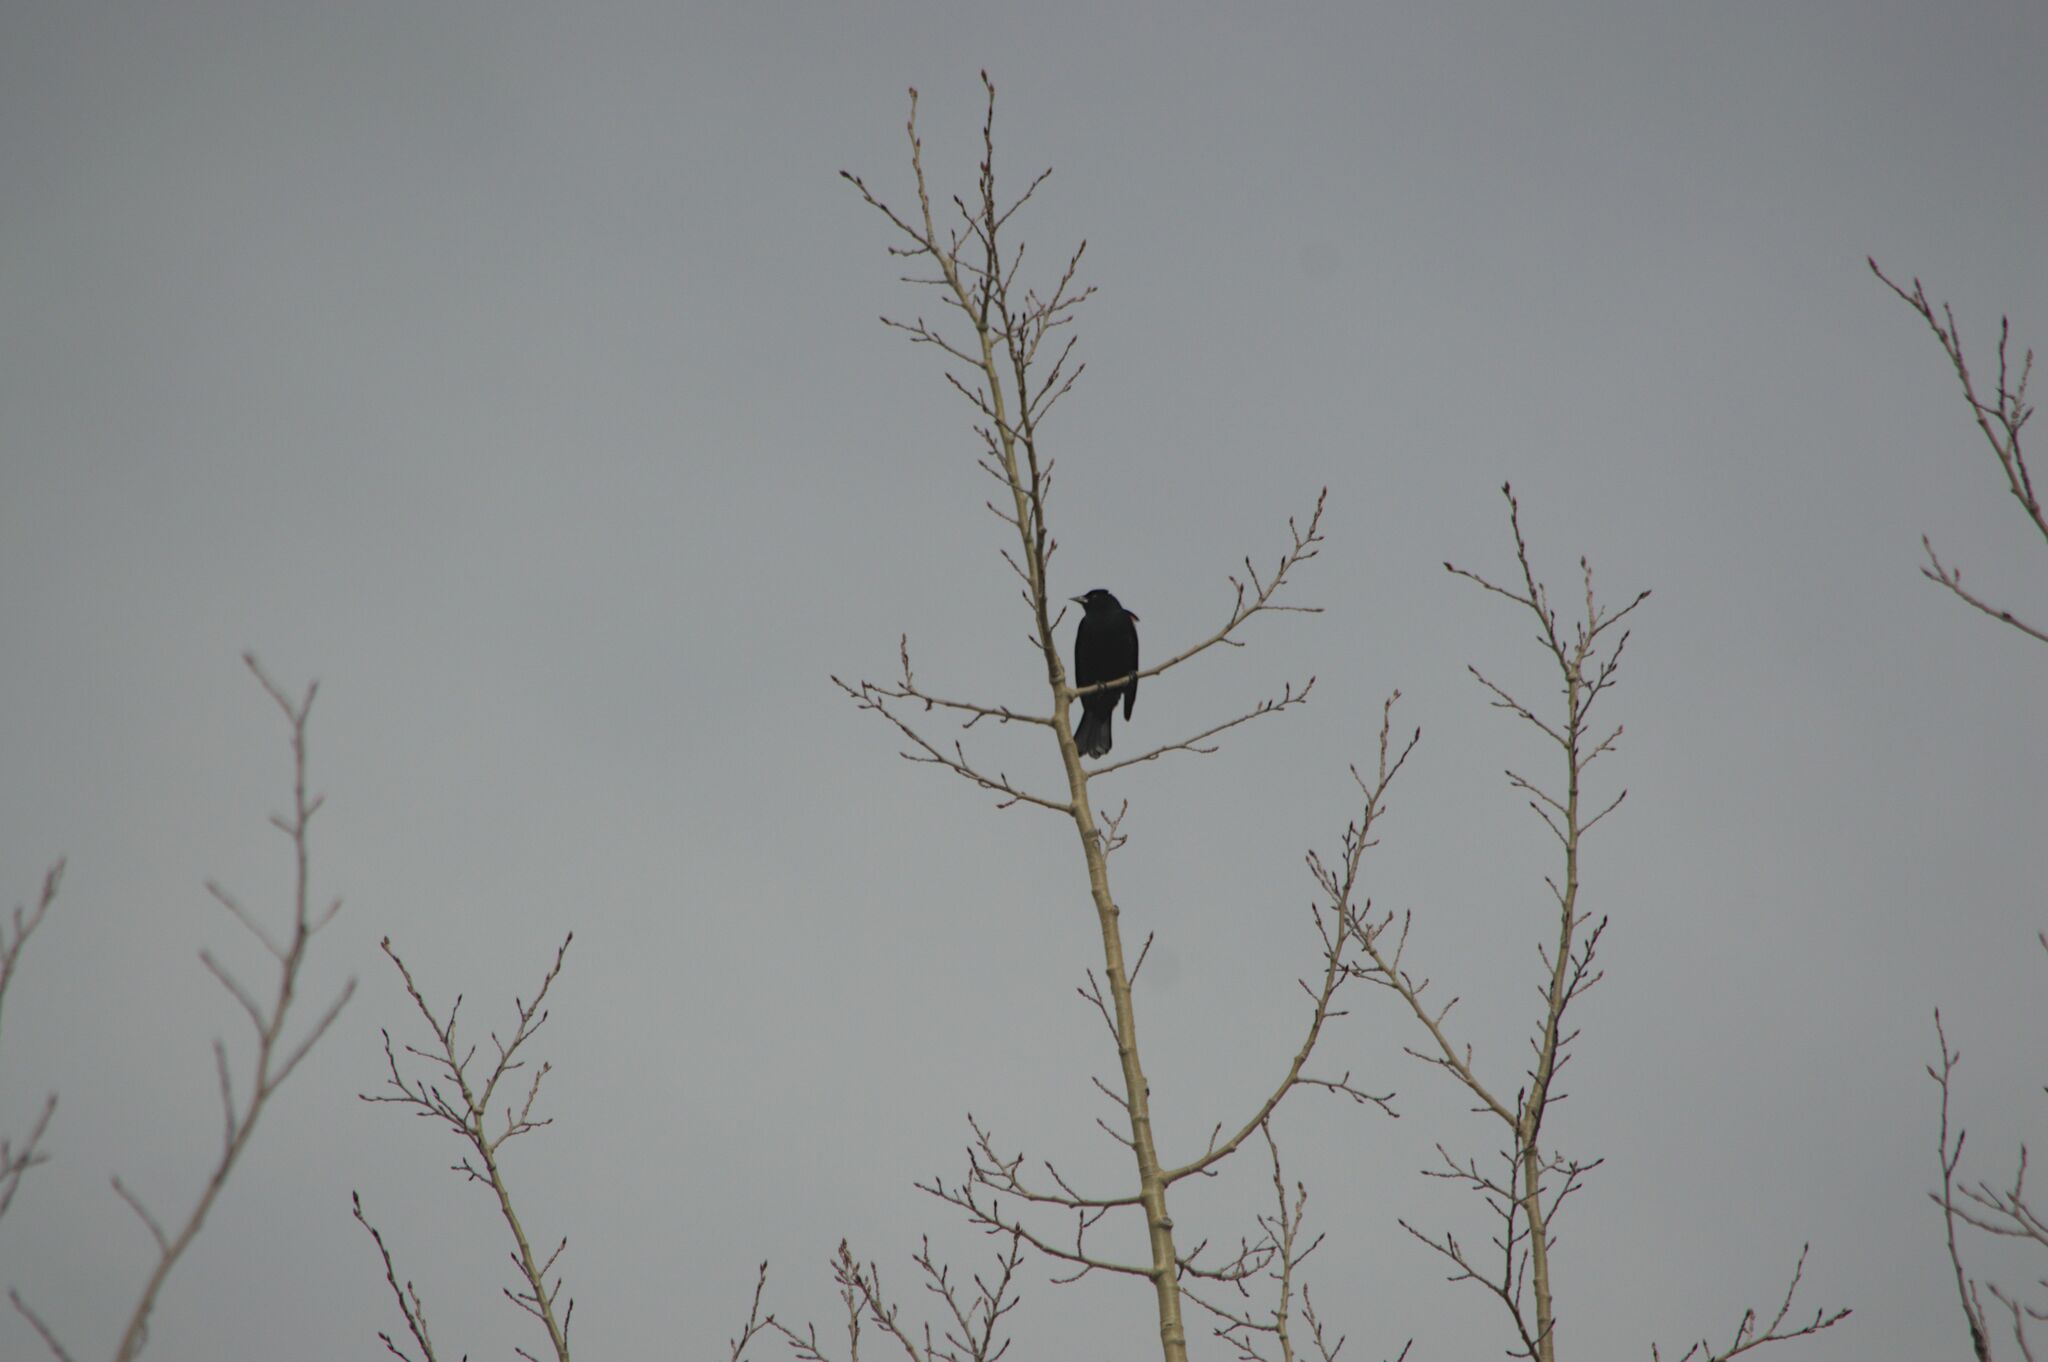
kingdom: Animalia
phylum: Chordata
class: Aves
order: Passeriformes
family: Icteridae
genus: Agelaius
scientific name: Agelaius phoeniceus
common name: Red-winged blackbird
